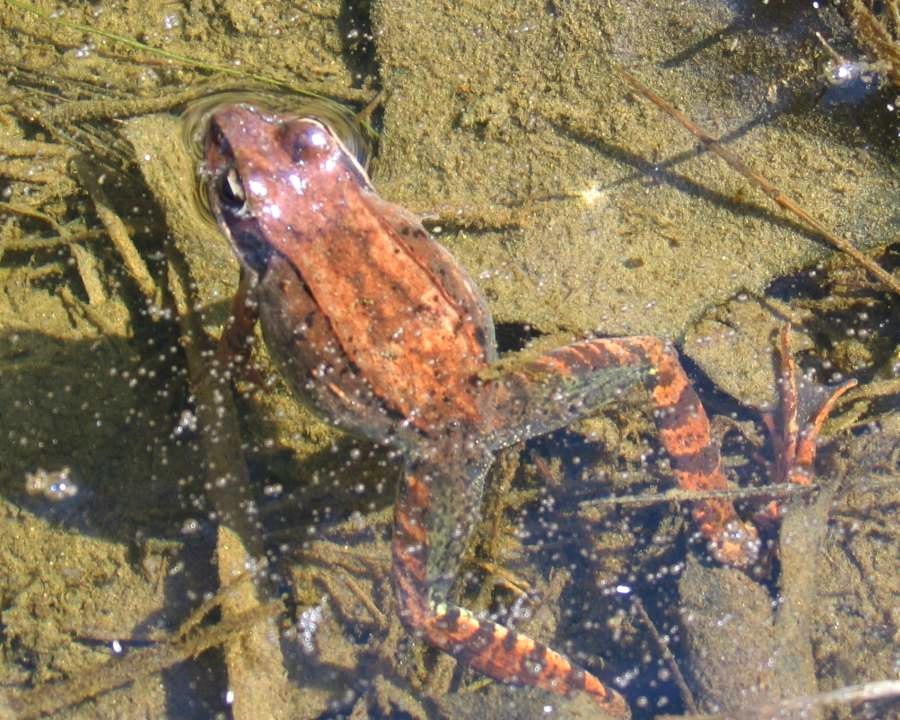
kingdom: Animalia
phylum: Chordata
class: Amphibia
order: Anura
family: Ranidae
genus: Lithobates
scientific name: Lithobates sylvaticus
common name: Wood frog
